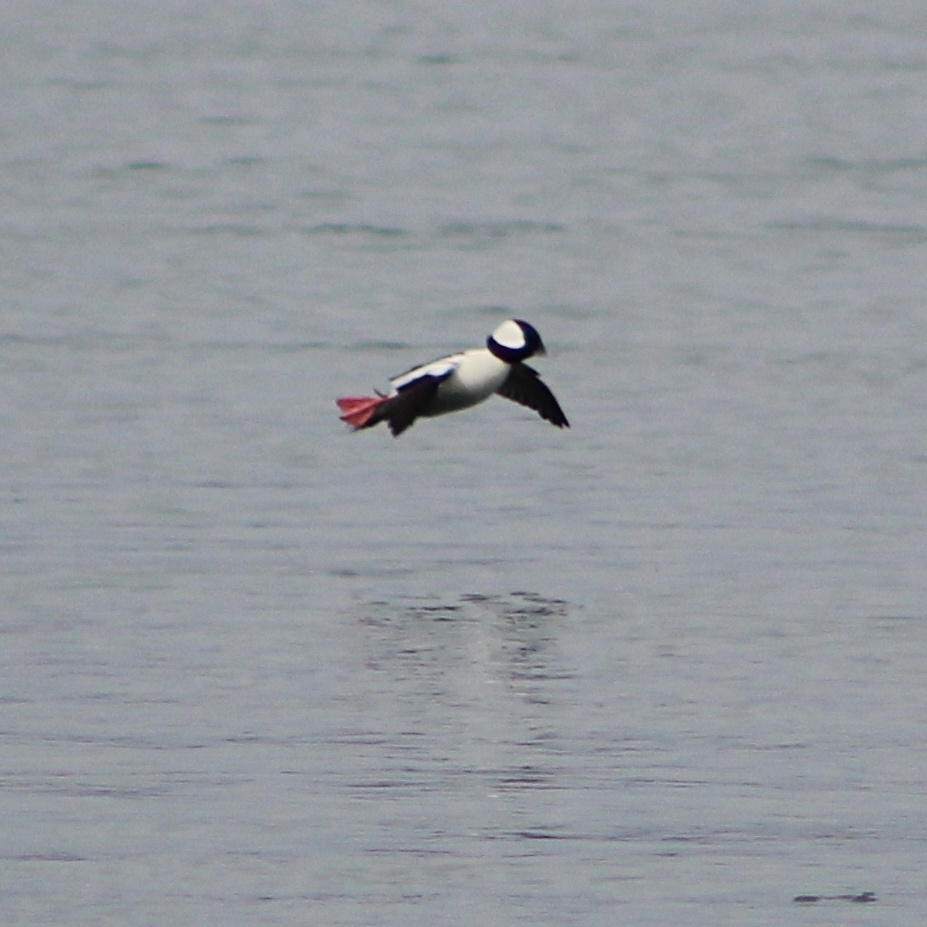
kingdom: Animalia
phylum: Chordata
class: Aves
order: Anseriformes
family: Anatidae
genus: Bucephala
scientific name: Bucephala albeola
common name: Bufflehead
